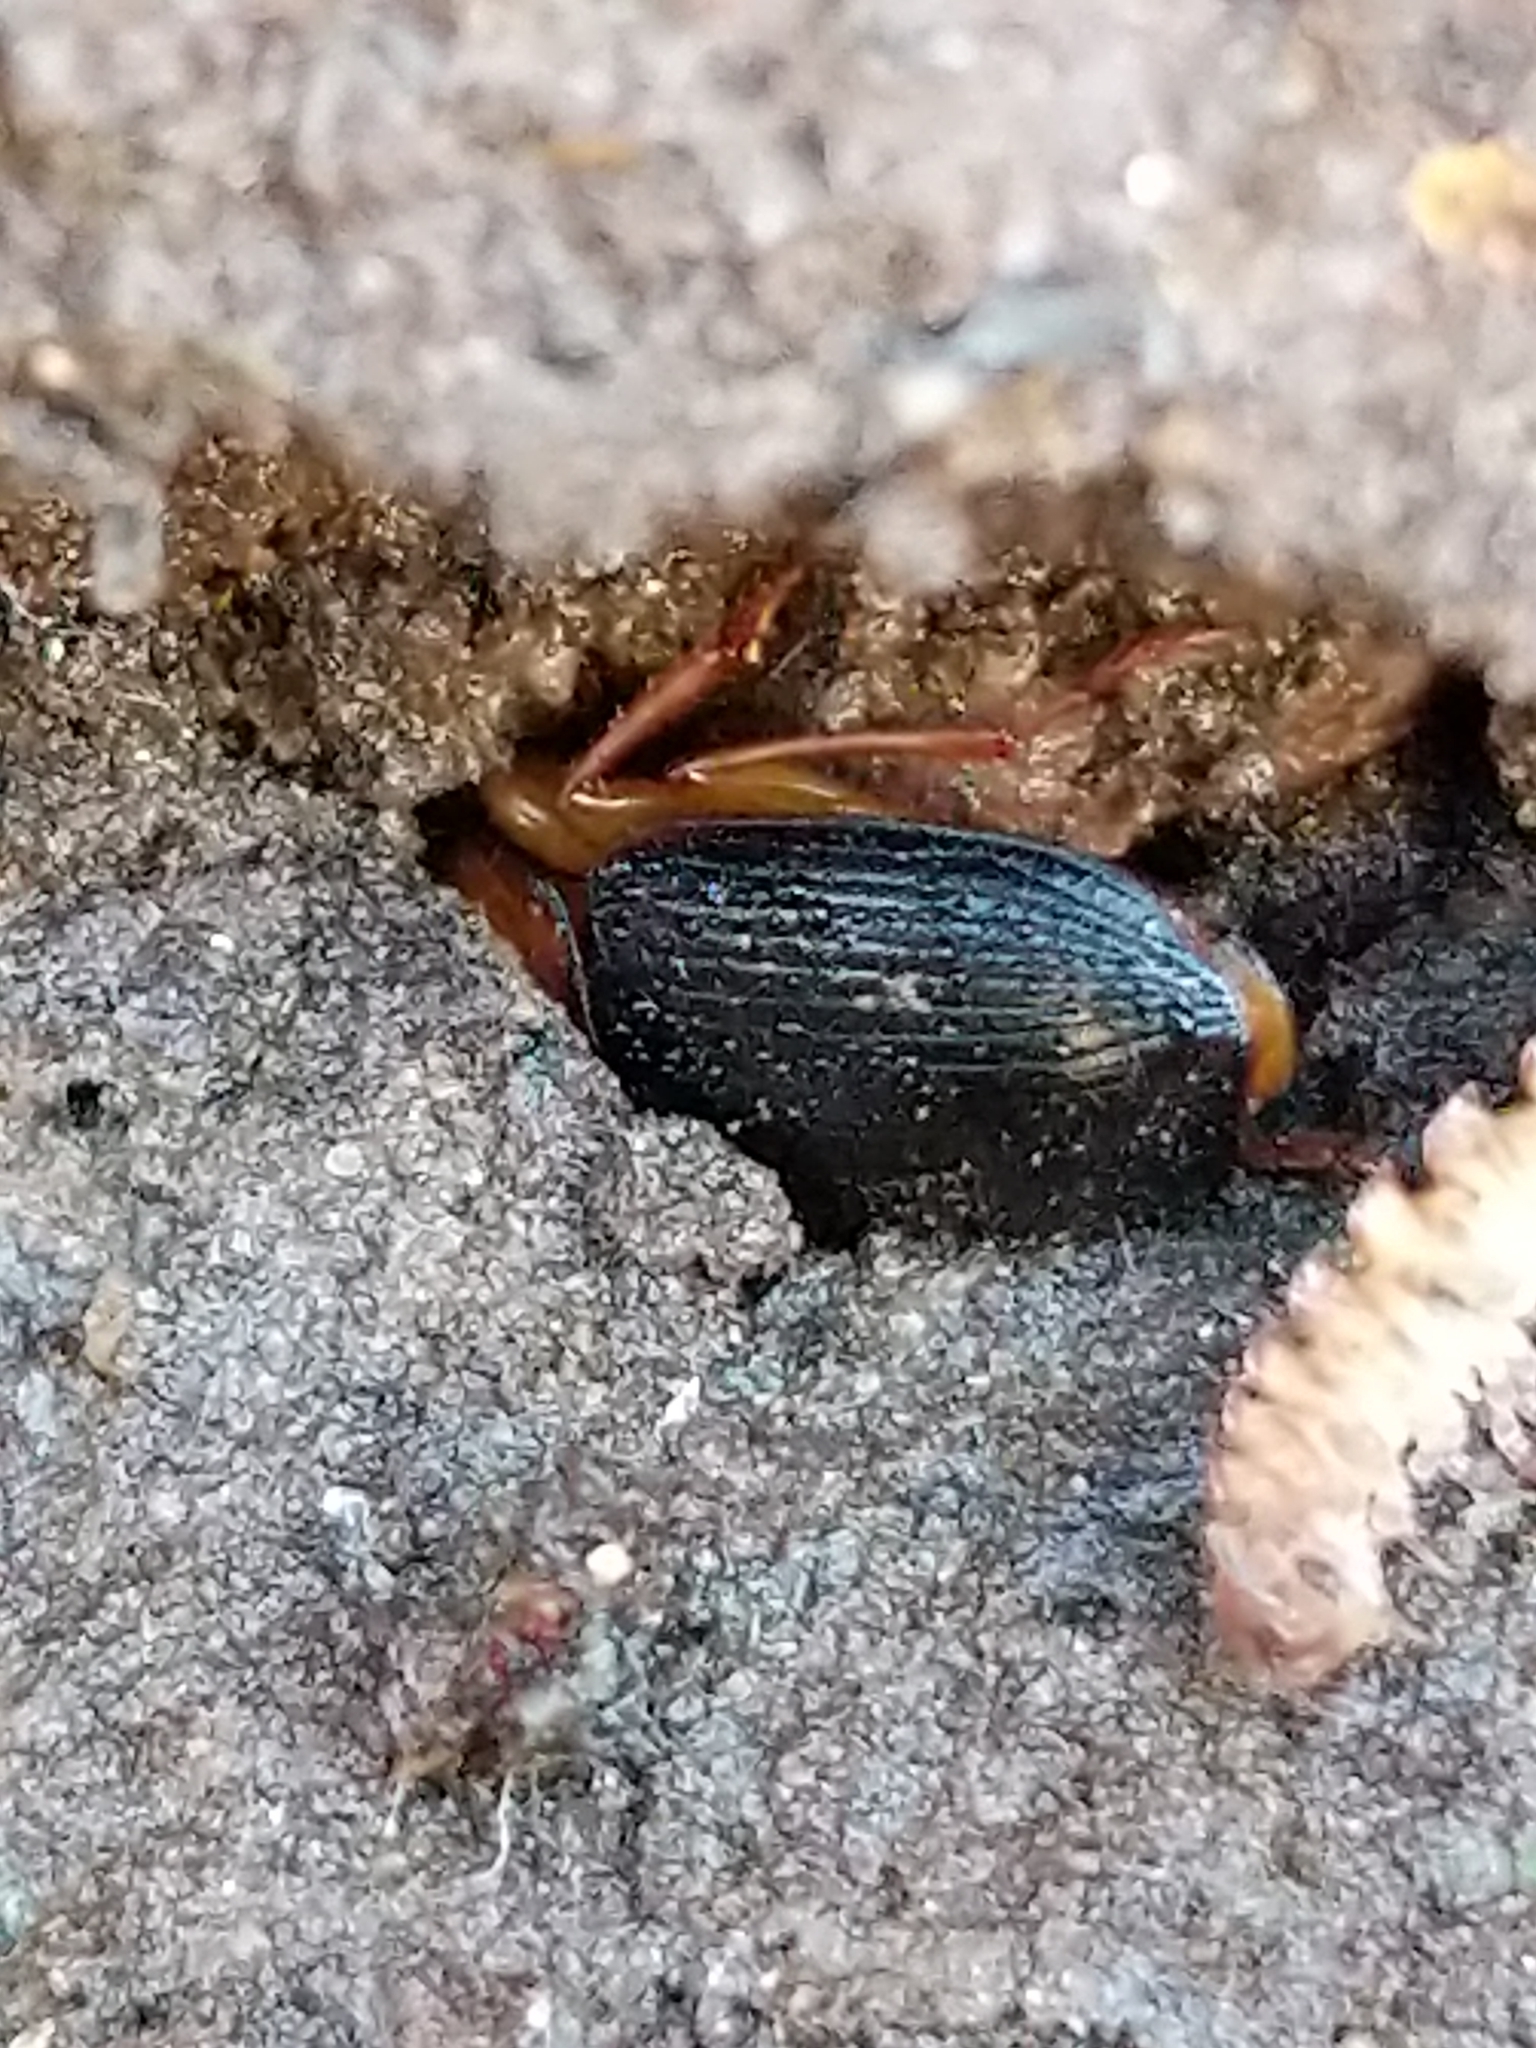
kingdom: Animalia
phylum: Arthropoda
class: Insecta
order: Coleoptera
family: Carabidae
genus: Amphasia
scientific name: Amphasia interstitialis
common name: Red-headed ground beetle
